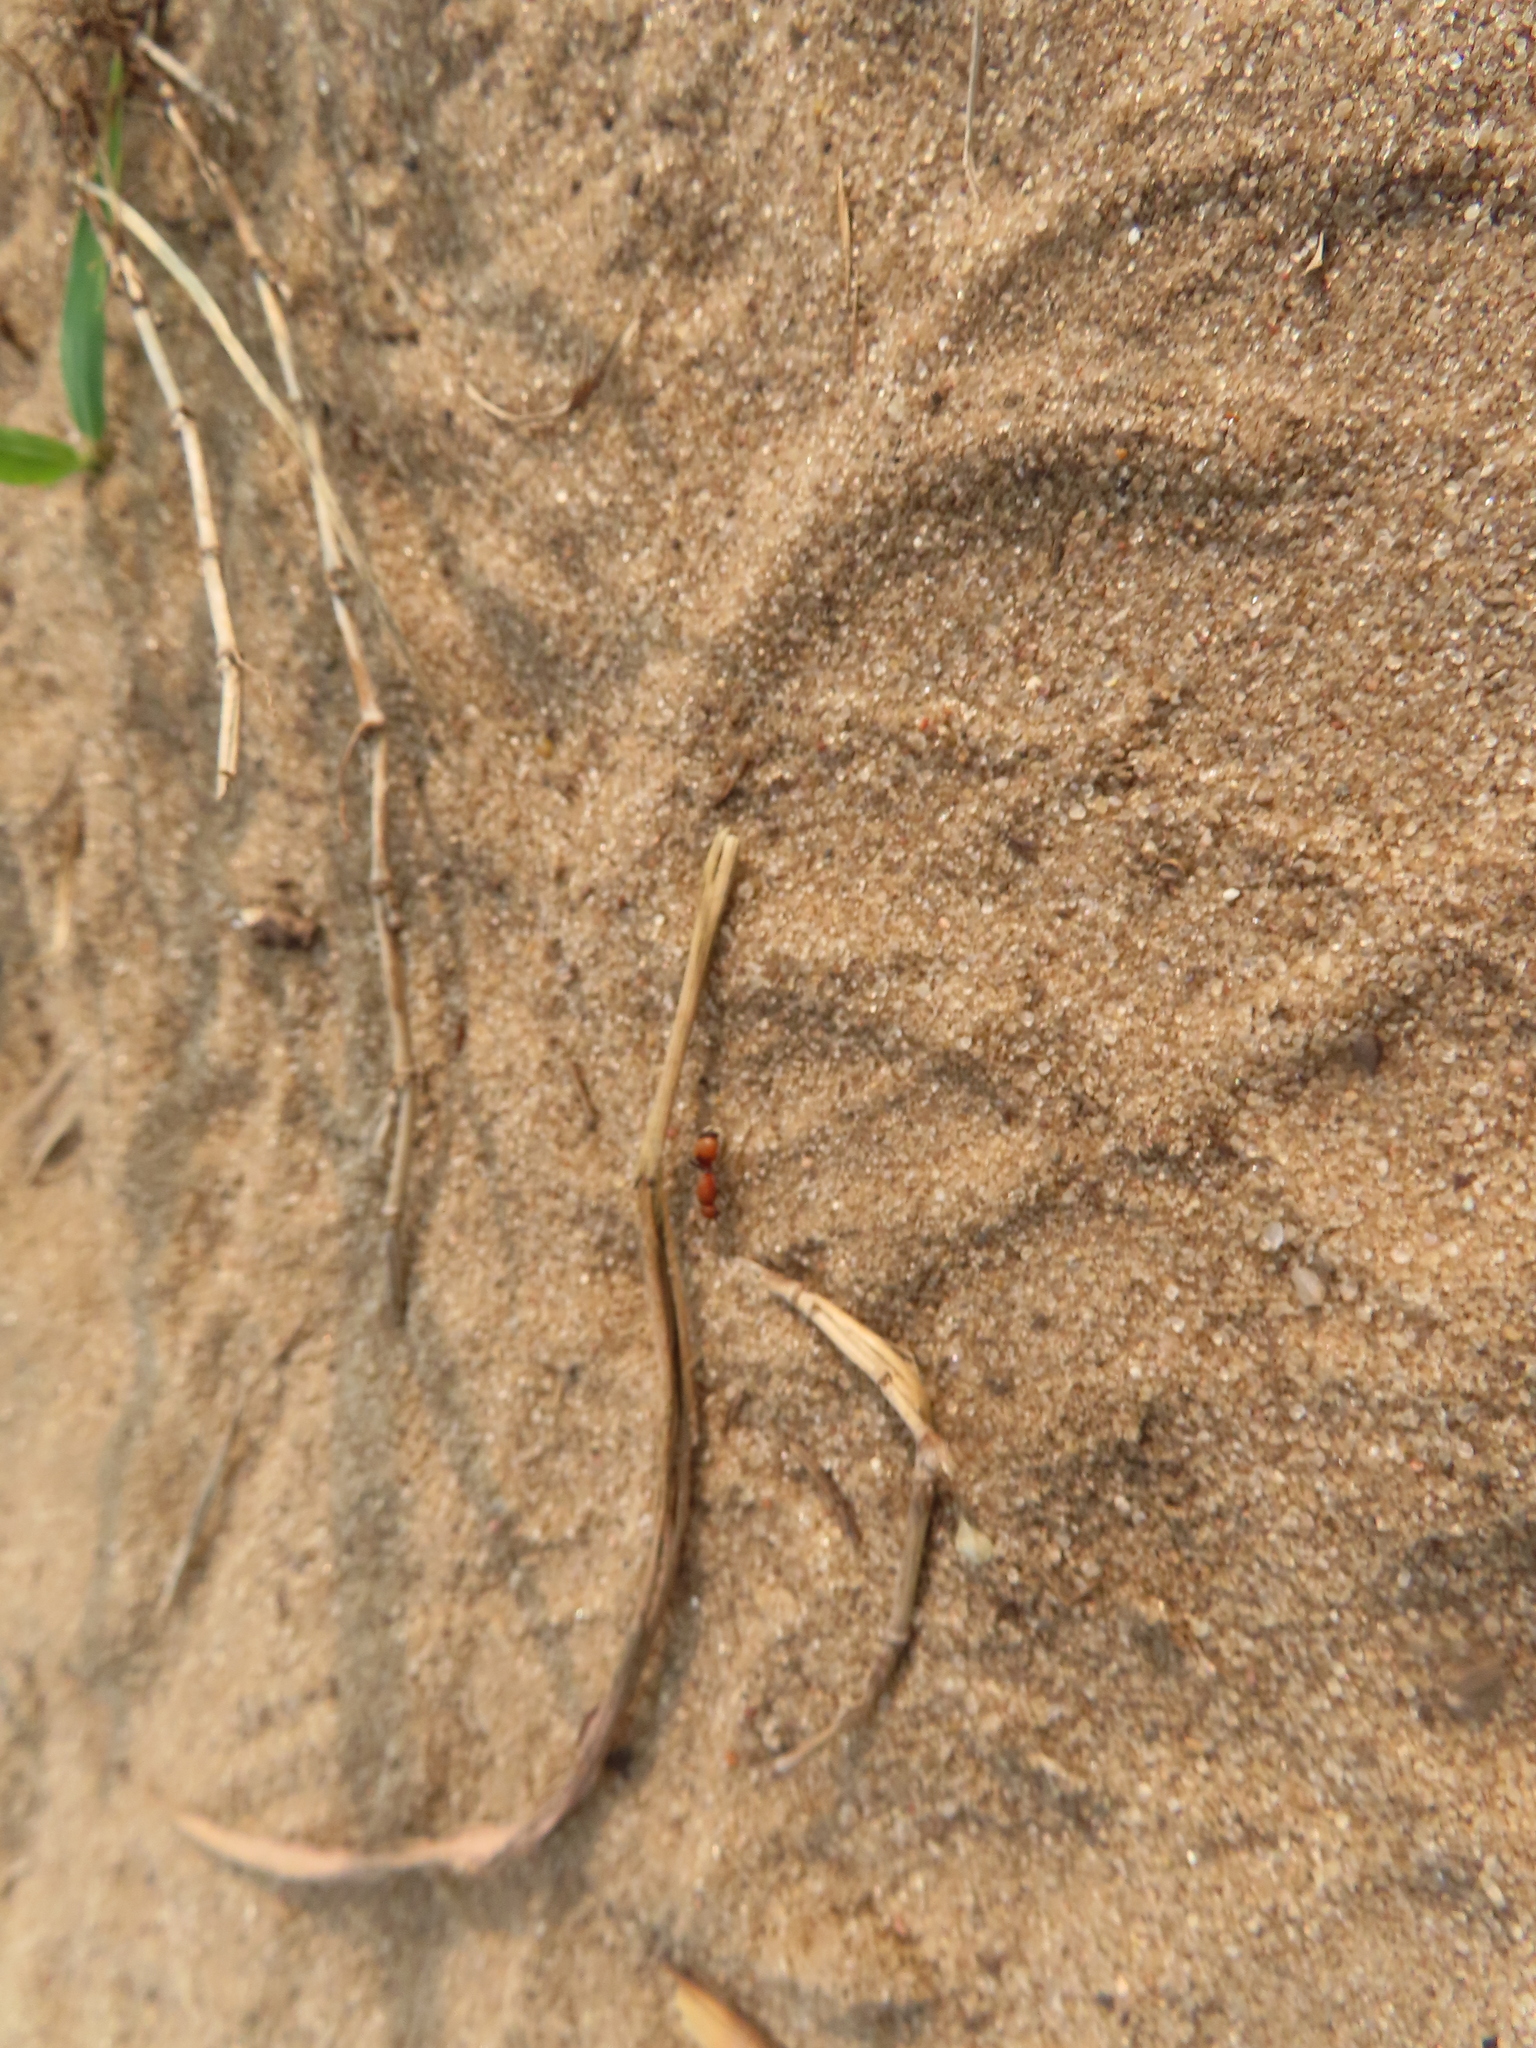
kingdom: Animalia
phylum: Arthropoda
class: Insecta
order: Hymenoptera
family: Mutillidae
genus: Dasymutilla
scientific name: Dasymutilla
